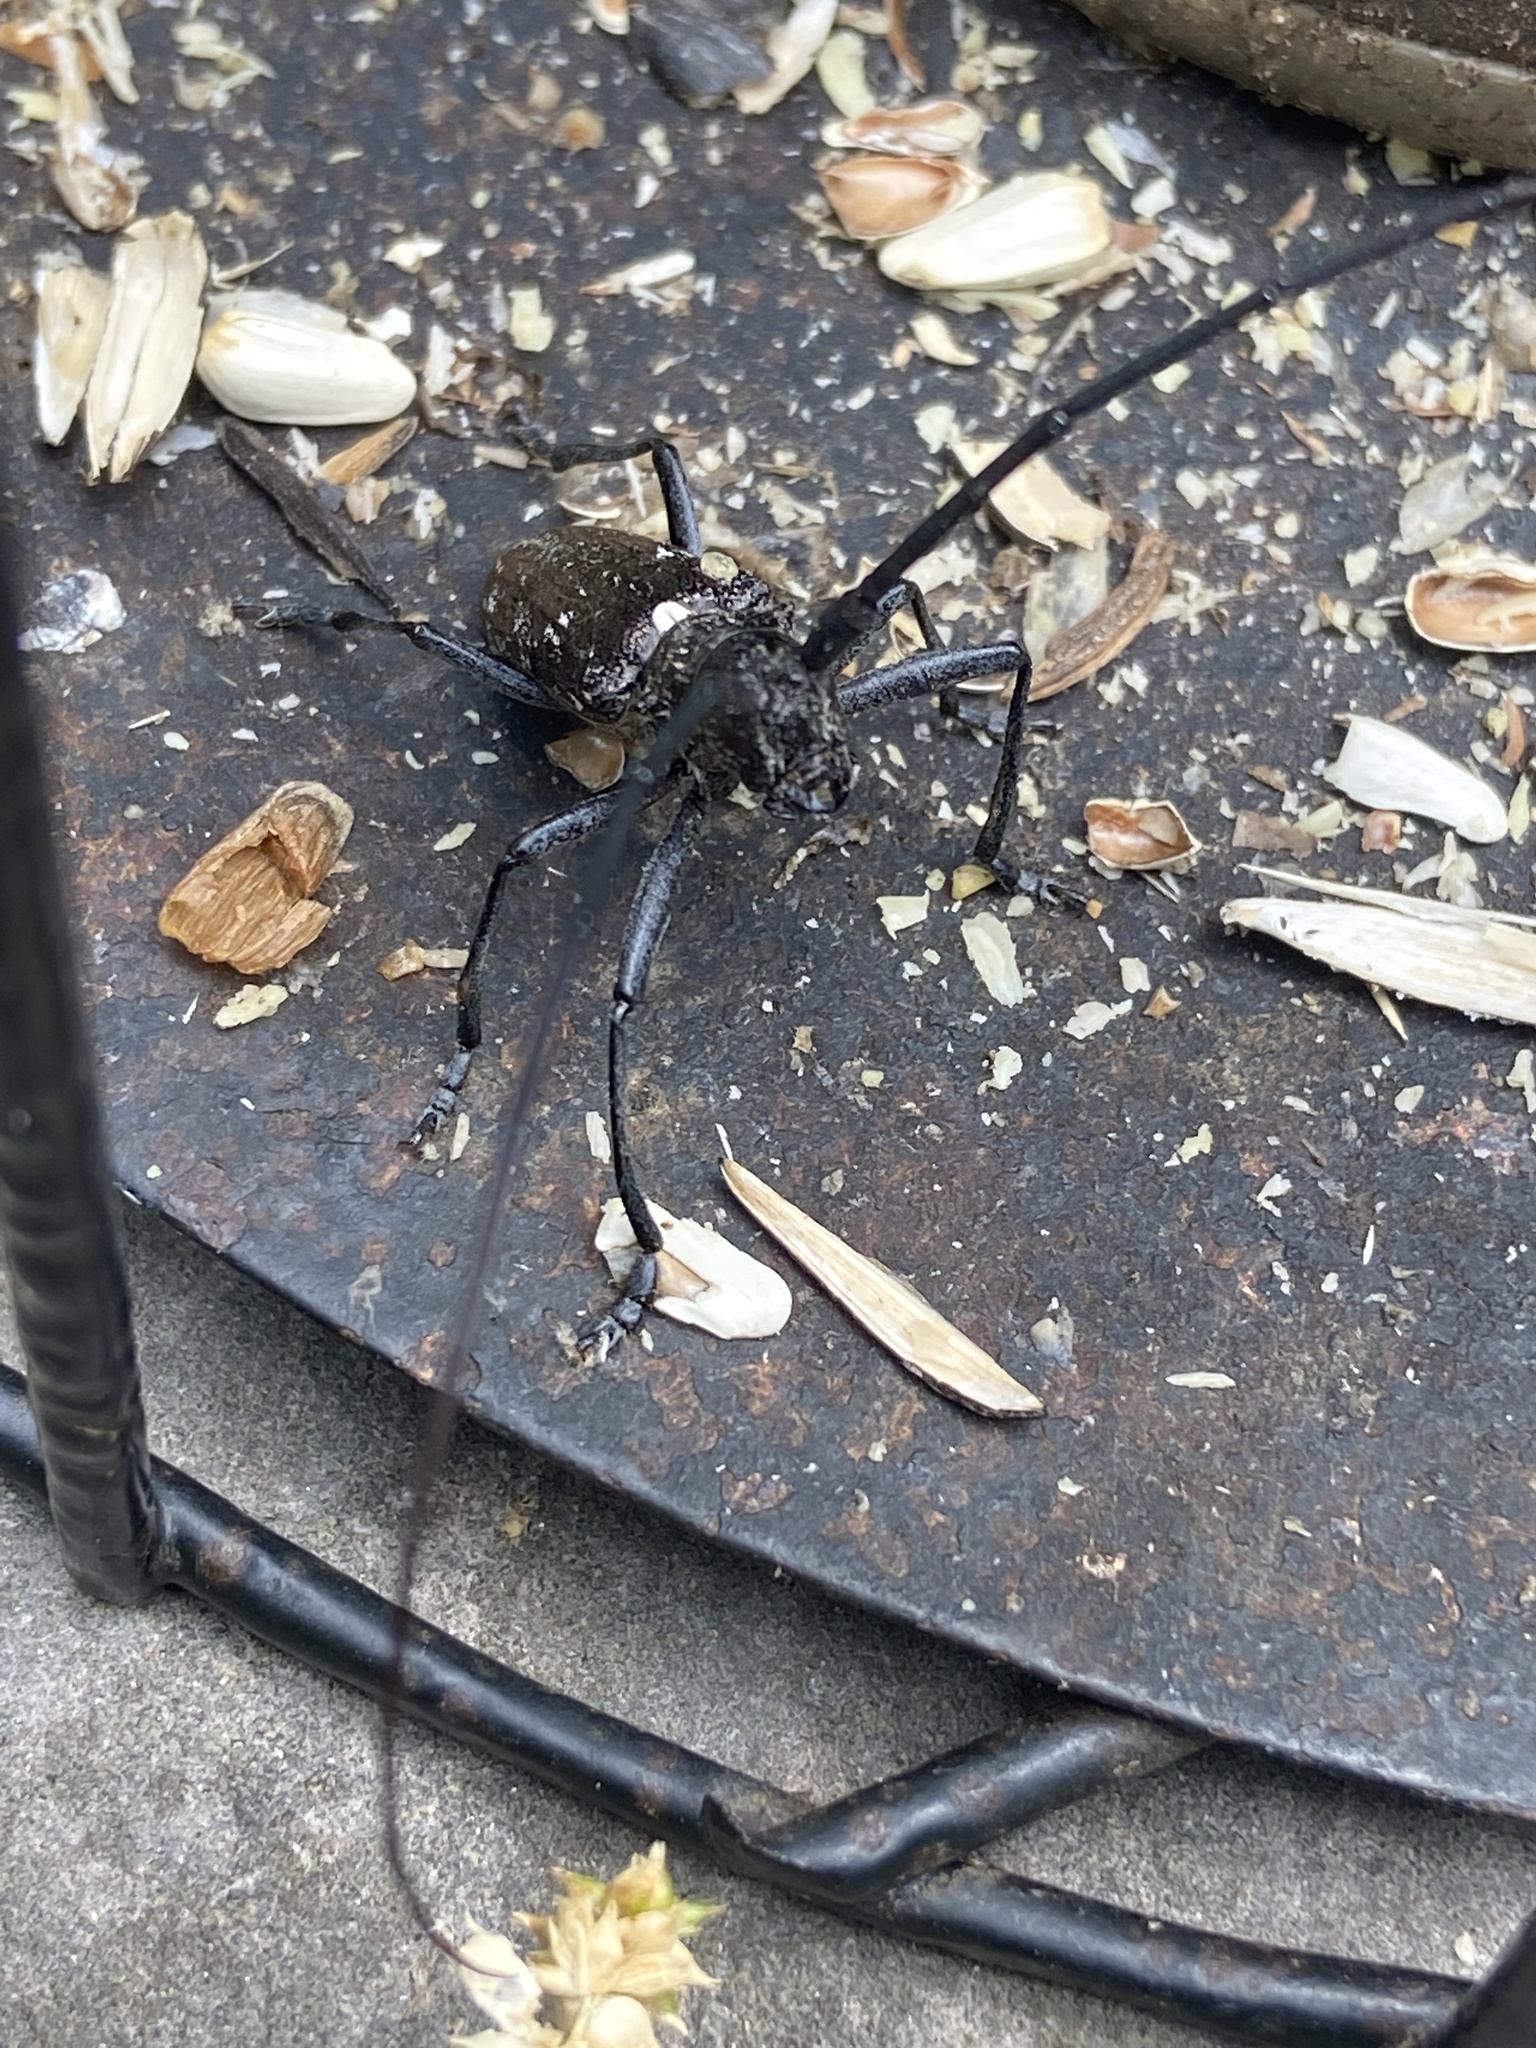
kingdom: Animalia
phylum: Arthropoda
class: Insecta
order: Coleoptera
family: Cerambycidae
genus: Monochamus
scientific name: Monochamus scutellatus
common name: White-spotted sawyer beetle
